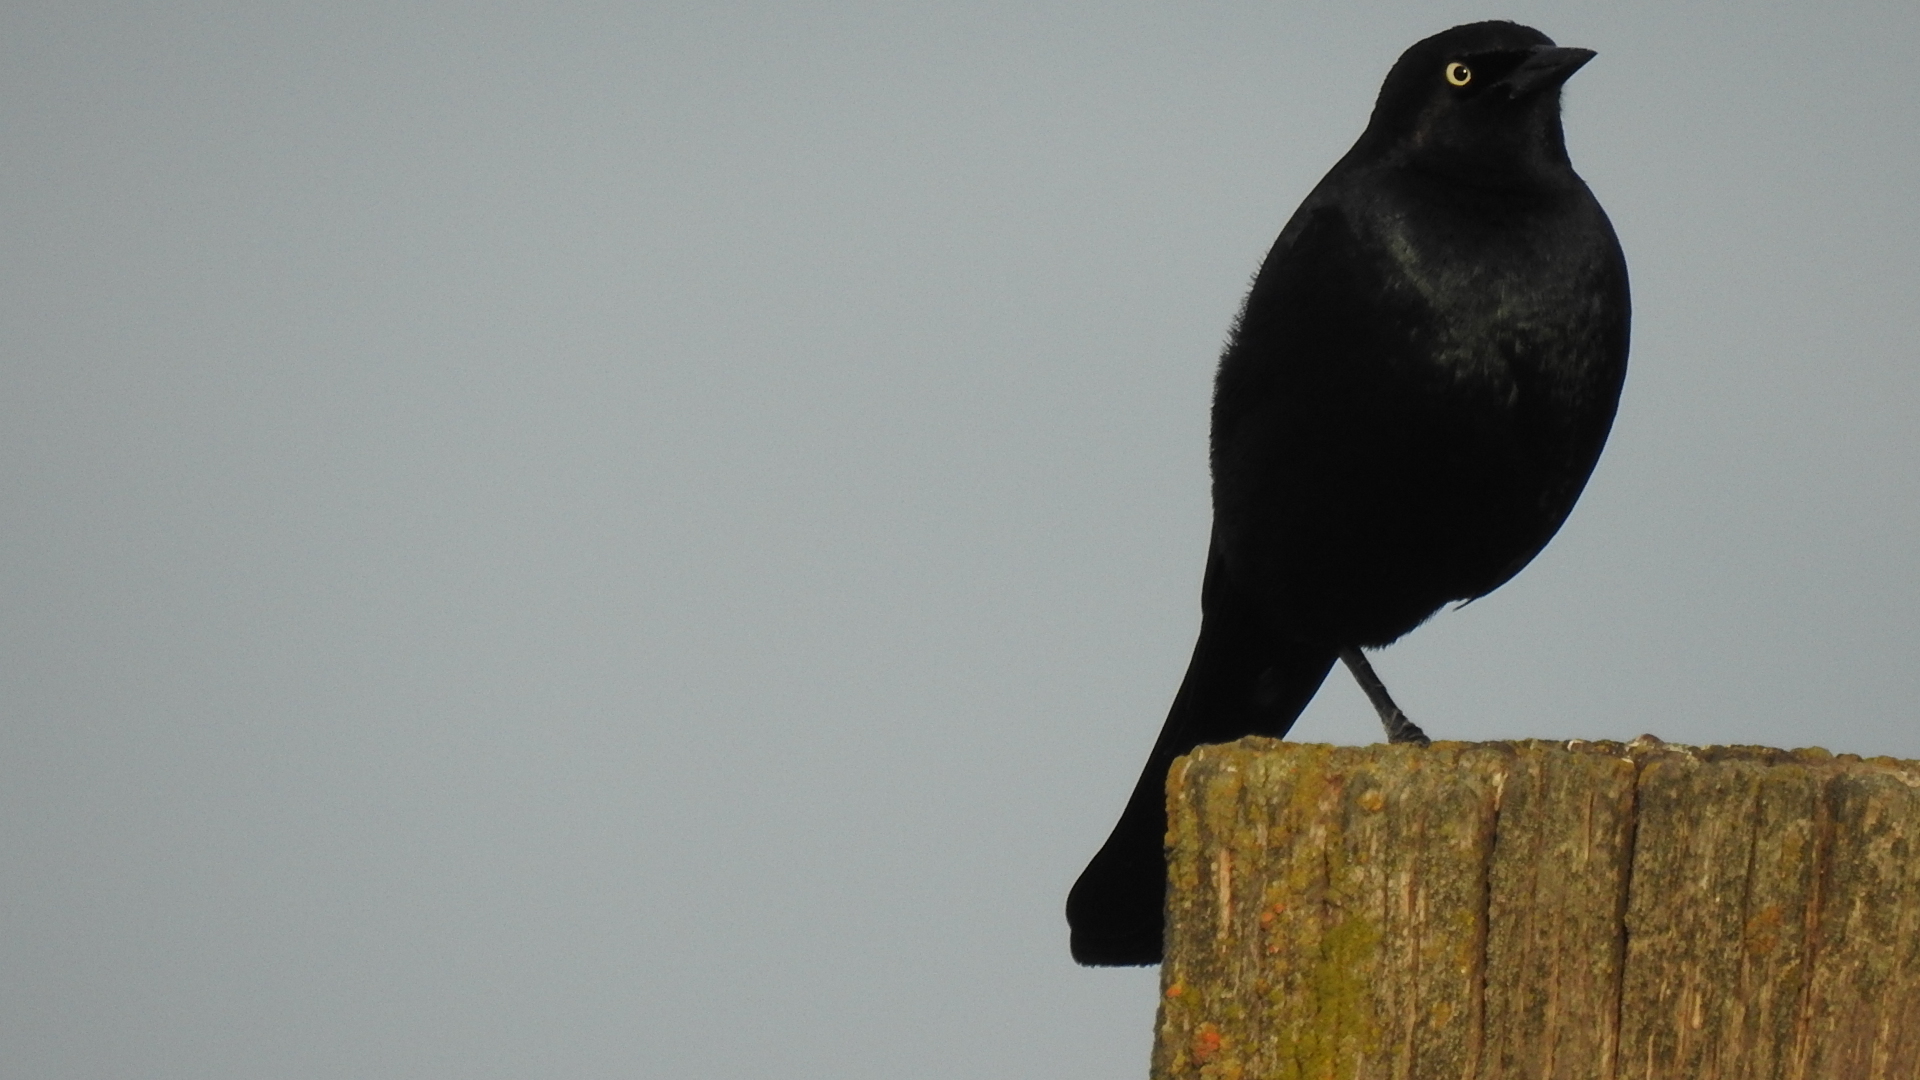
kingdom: Animalia
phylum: Chordata
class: Aves
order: Passeriformes
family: Icteridae
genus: Euphagus
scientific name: Euphagus cyanocephalus
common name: Brewer's blackbird
